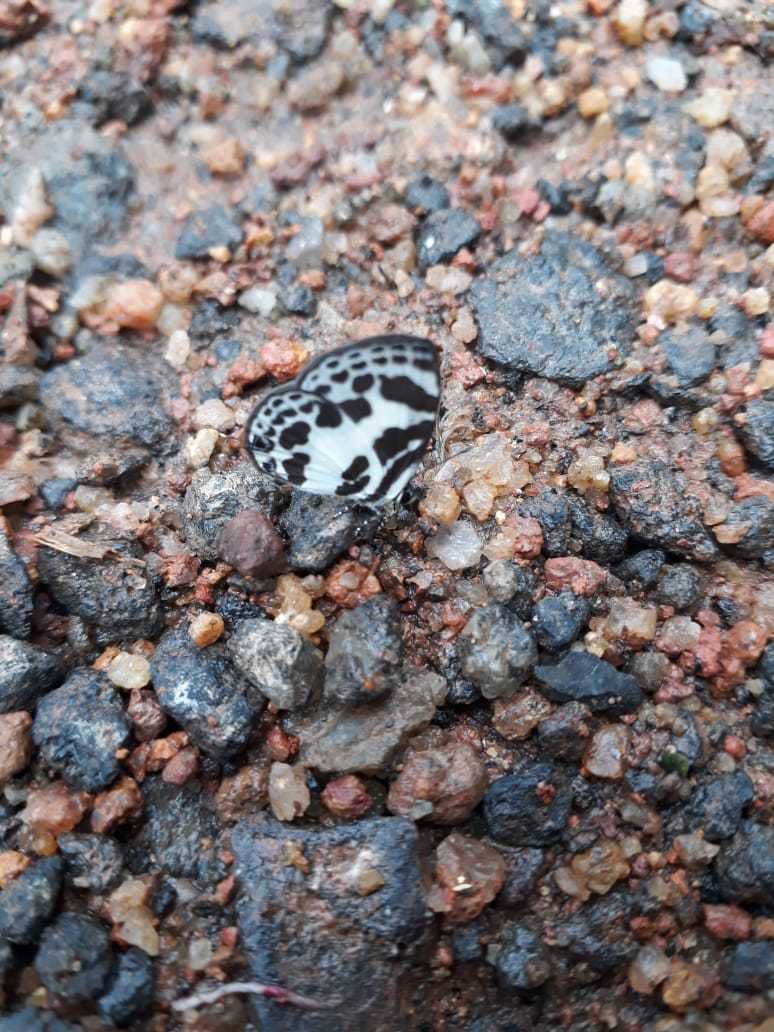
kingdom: Animalia
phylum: Arthropoda
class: Insecta
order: Lepidoptera
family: Lycaenidae
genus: Discolampa
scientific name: Discolampa ethion
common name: Banded blue pierrot
